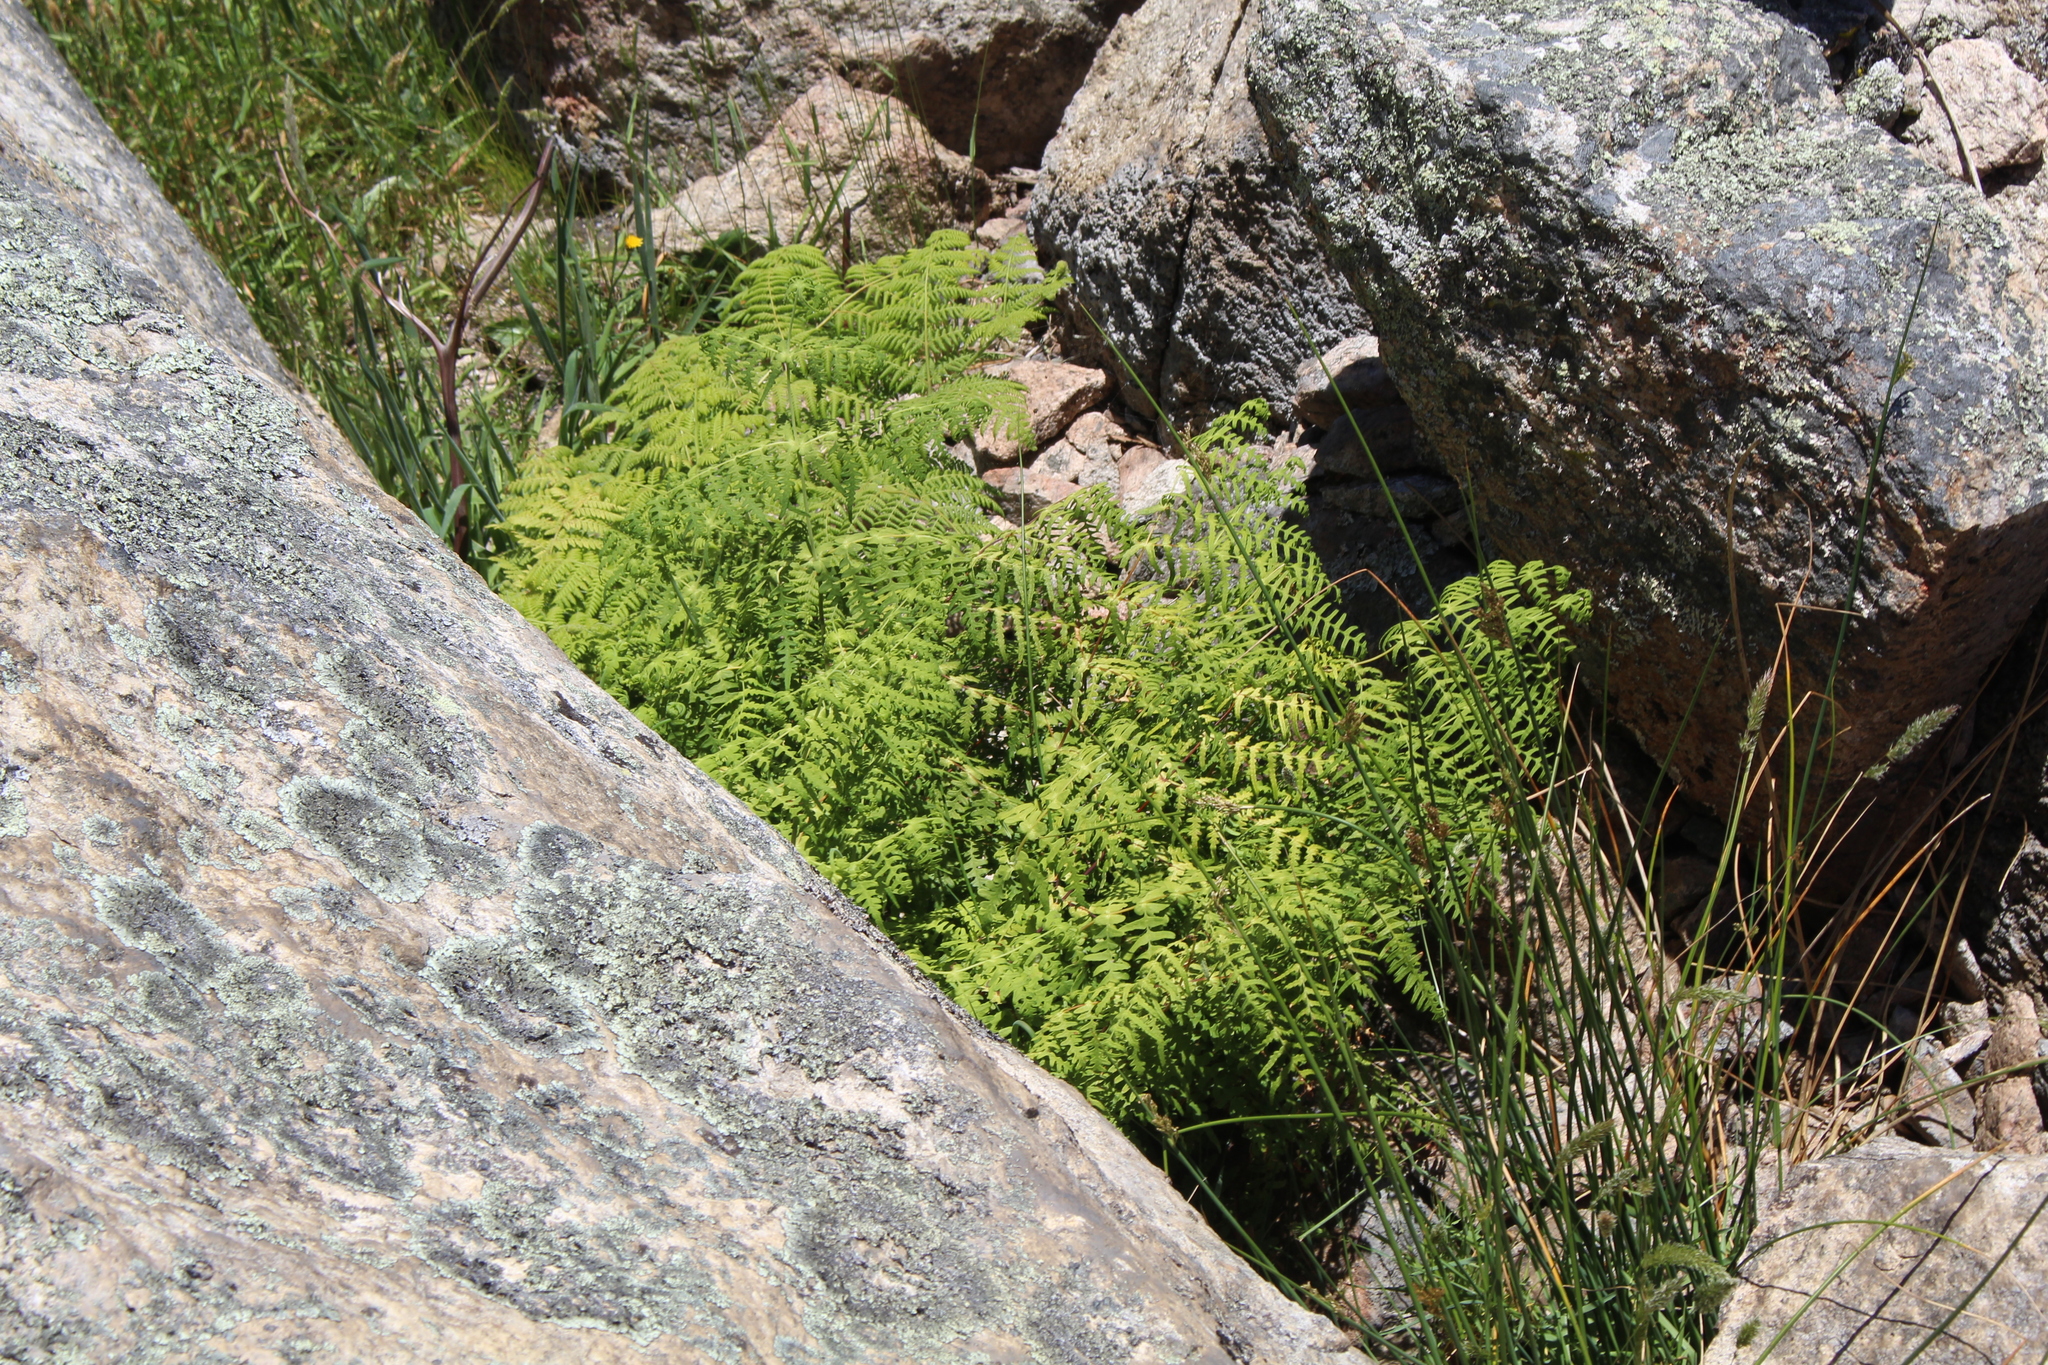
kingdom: Plantae
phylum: Tracheophyta
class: Polypodiopsida
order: Polypodiales
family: Dennstaedtiaceae
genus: Histiopteris
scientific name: Histiopteris incisa
